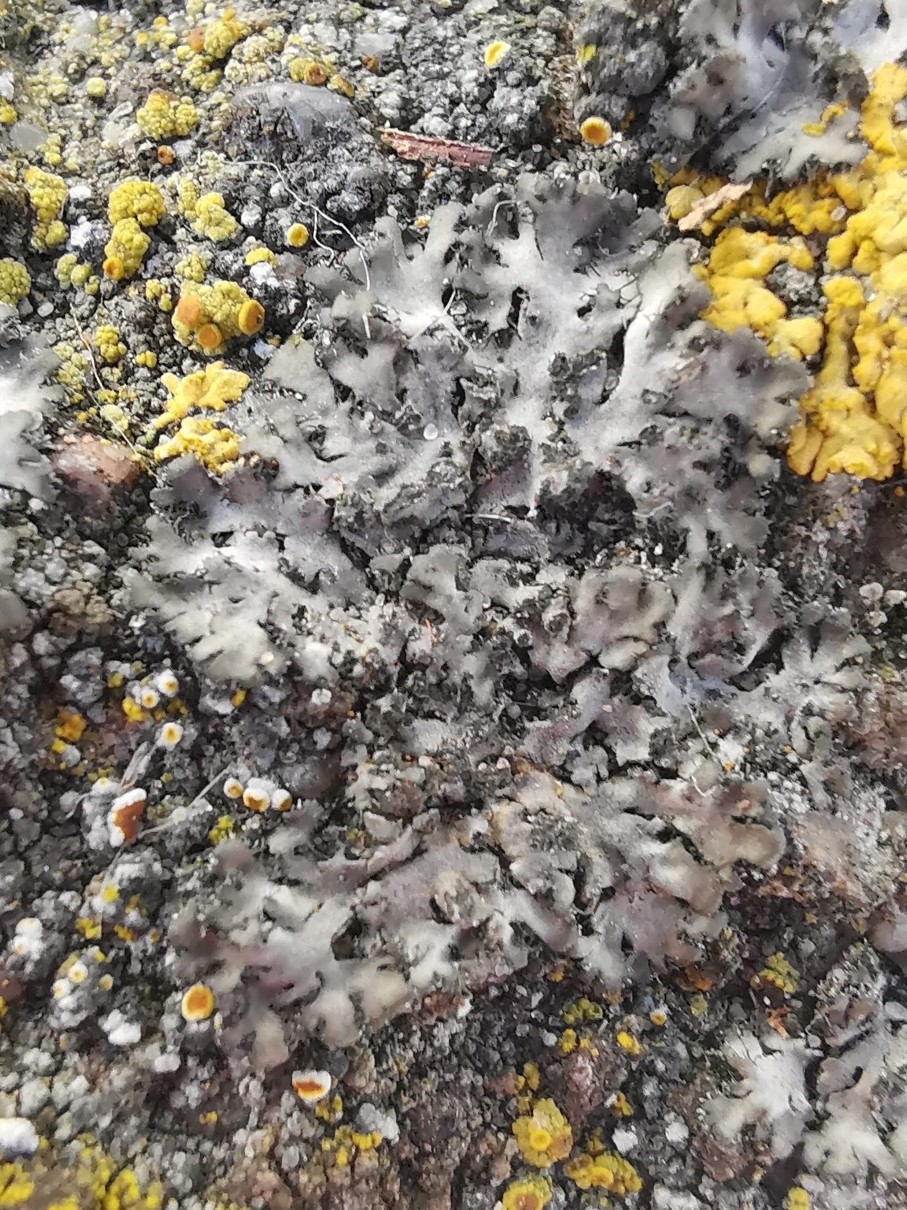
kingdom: Fungi
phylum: Ascomycota
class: Lecanoromycetes
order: Caliciales
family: Physciaceae
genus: Phaeophyscia
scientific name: Phaeophyscia orbicularis
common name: Mealy shadow lichen
